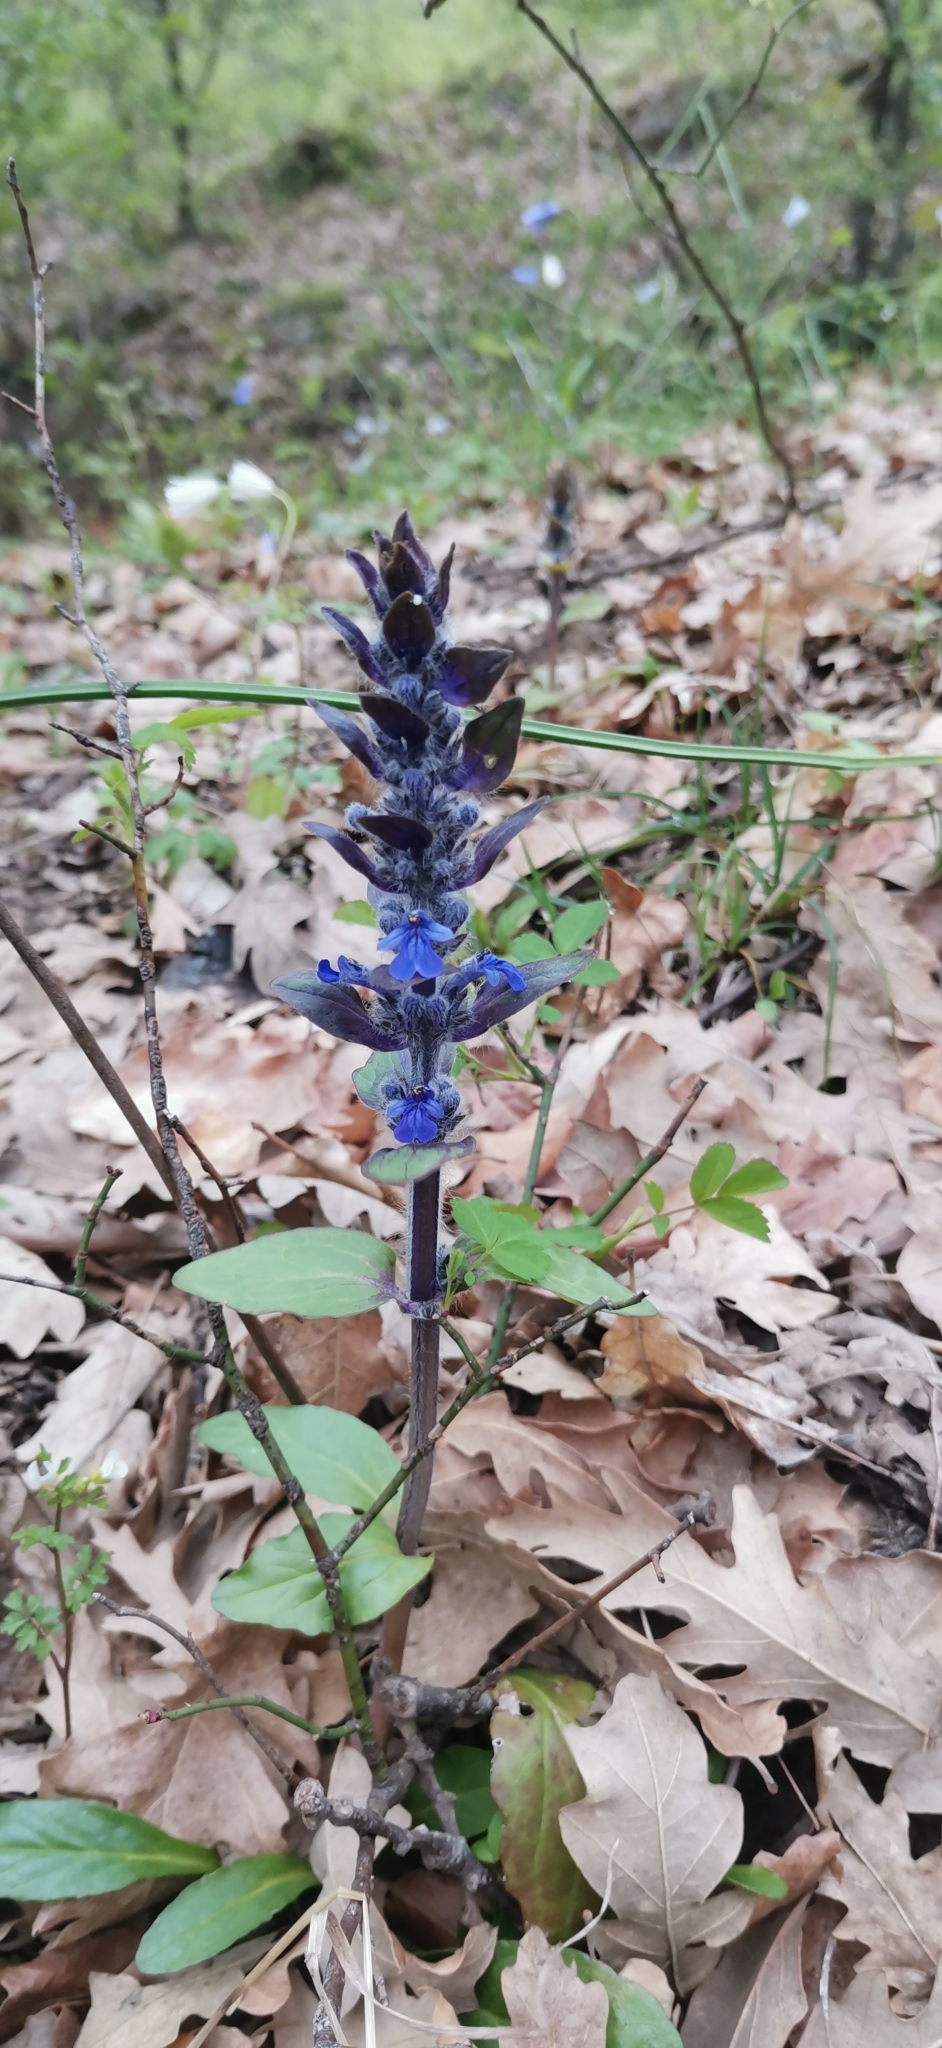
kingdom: Plantae
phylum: Tracheophyta
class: Magnoliopsida
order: Lamiales
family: Lamiaceae
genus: Ajuga
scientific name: Ajuga reptans
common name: Bugle
